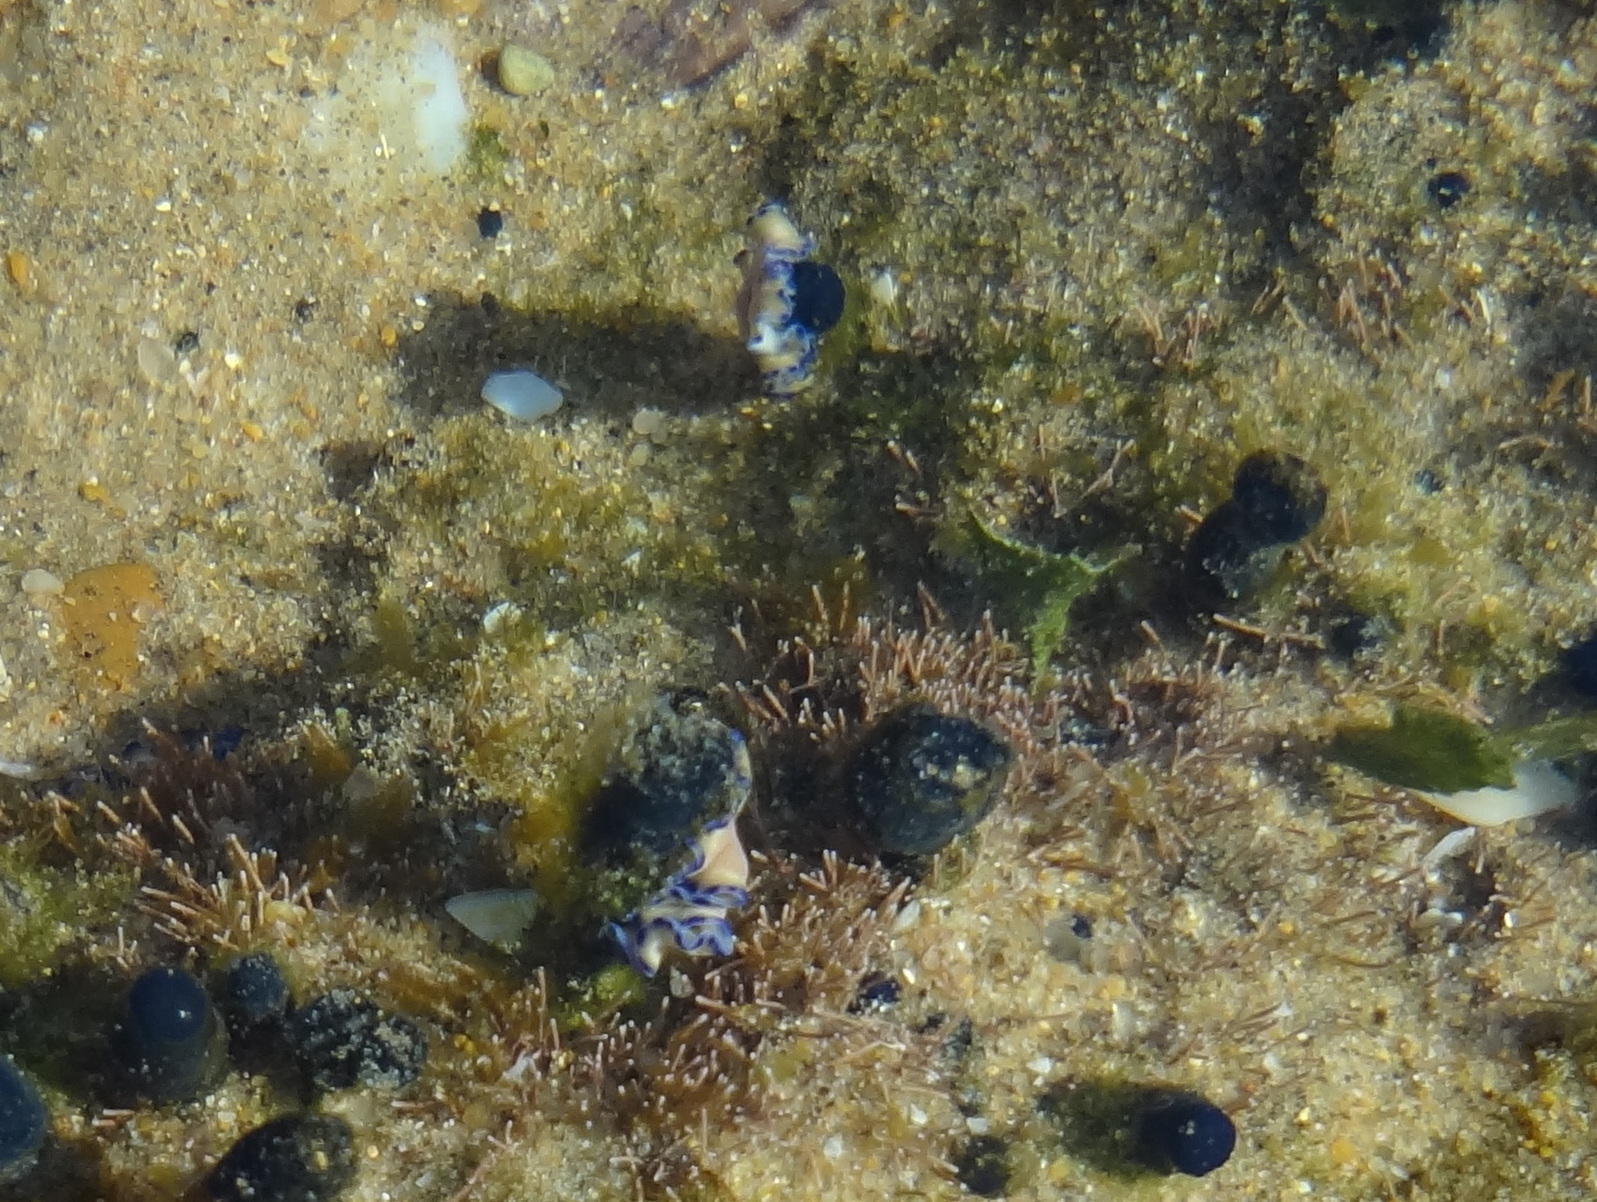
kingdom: Animalia
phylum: Chordata
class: Ascidiacea
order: Aplousobranchia
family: Polycitoridae
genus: Eudistoma
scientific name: Eudistoma caeruleum
